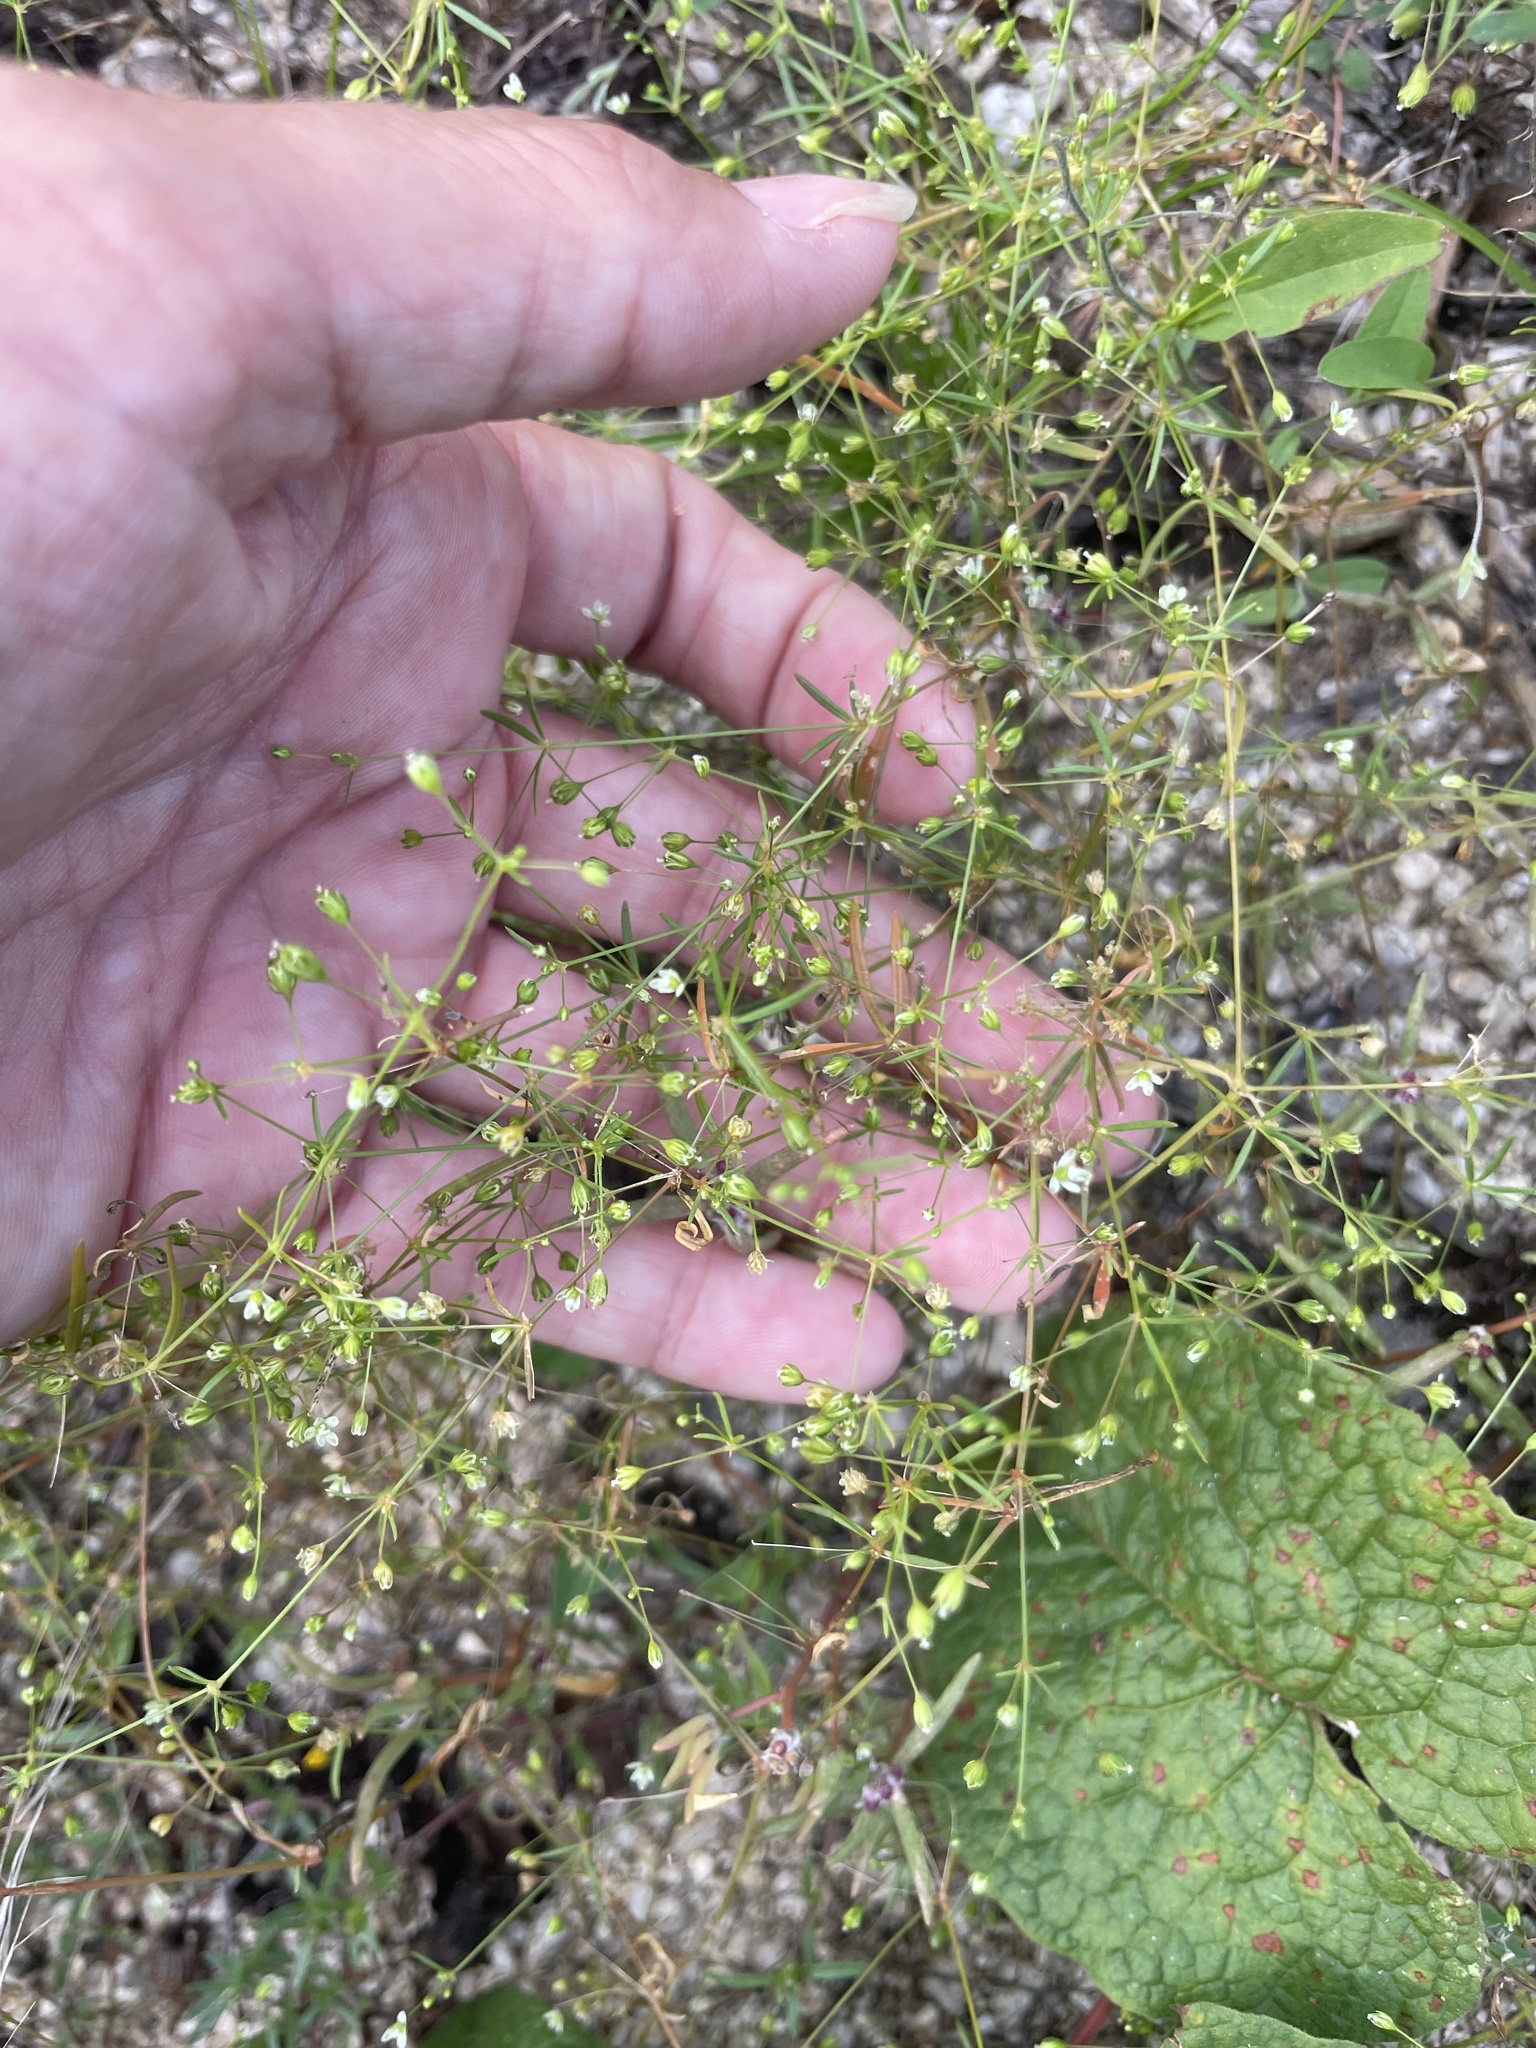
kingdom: Plantae
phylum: Tracheophyta
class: Magnoliopsida
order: Caryophyllales
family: Molluginaceae
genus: Mollugo
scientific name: Mollugo verticillata
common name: Green carpetweed
